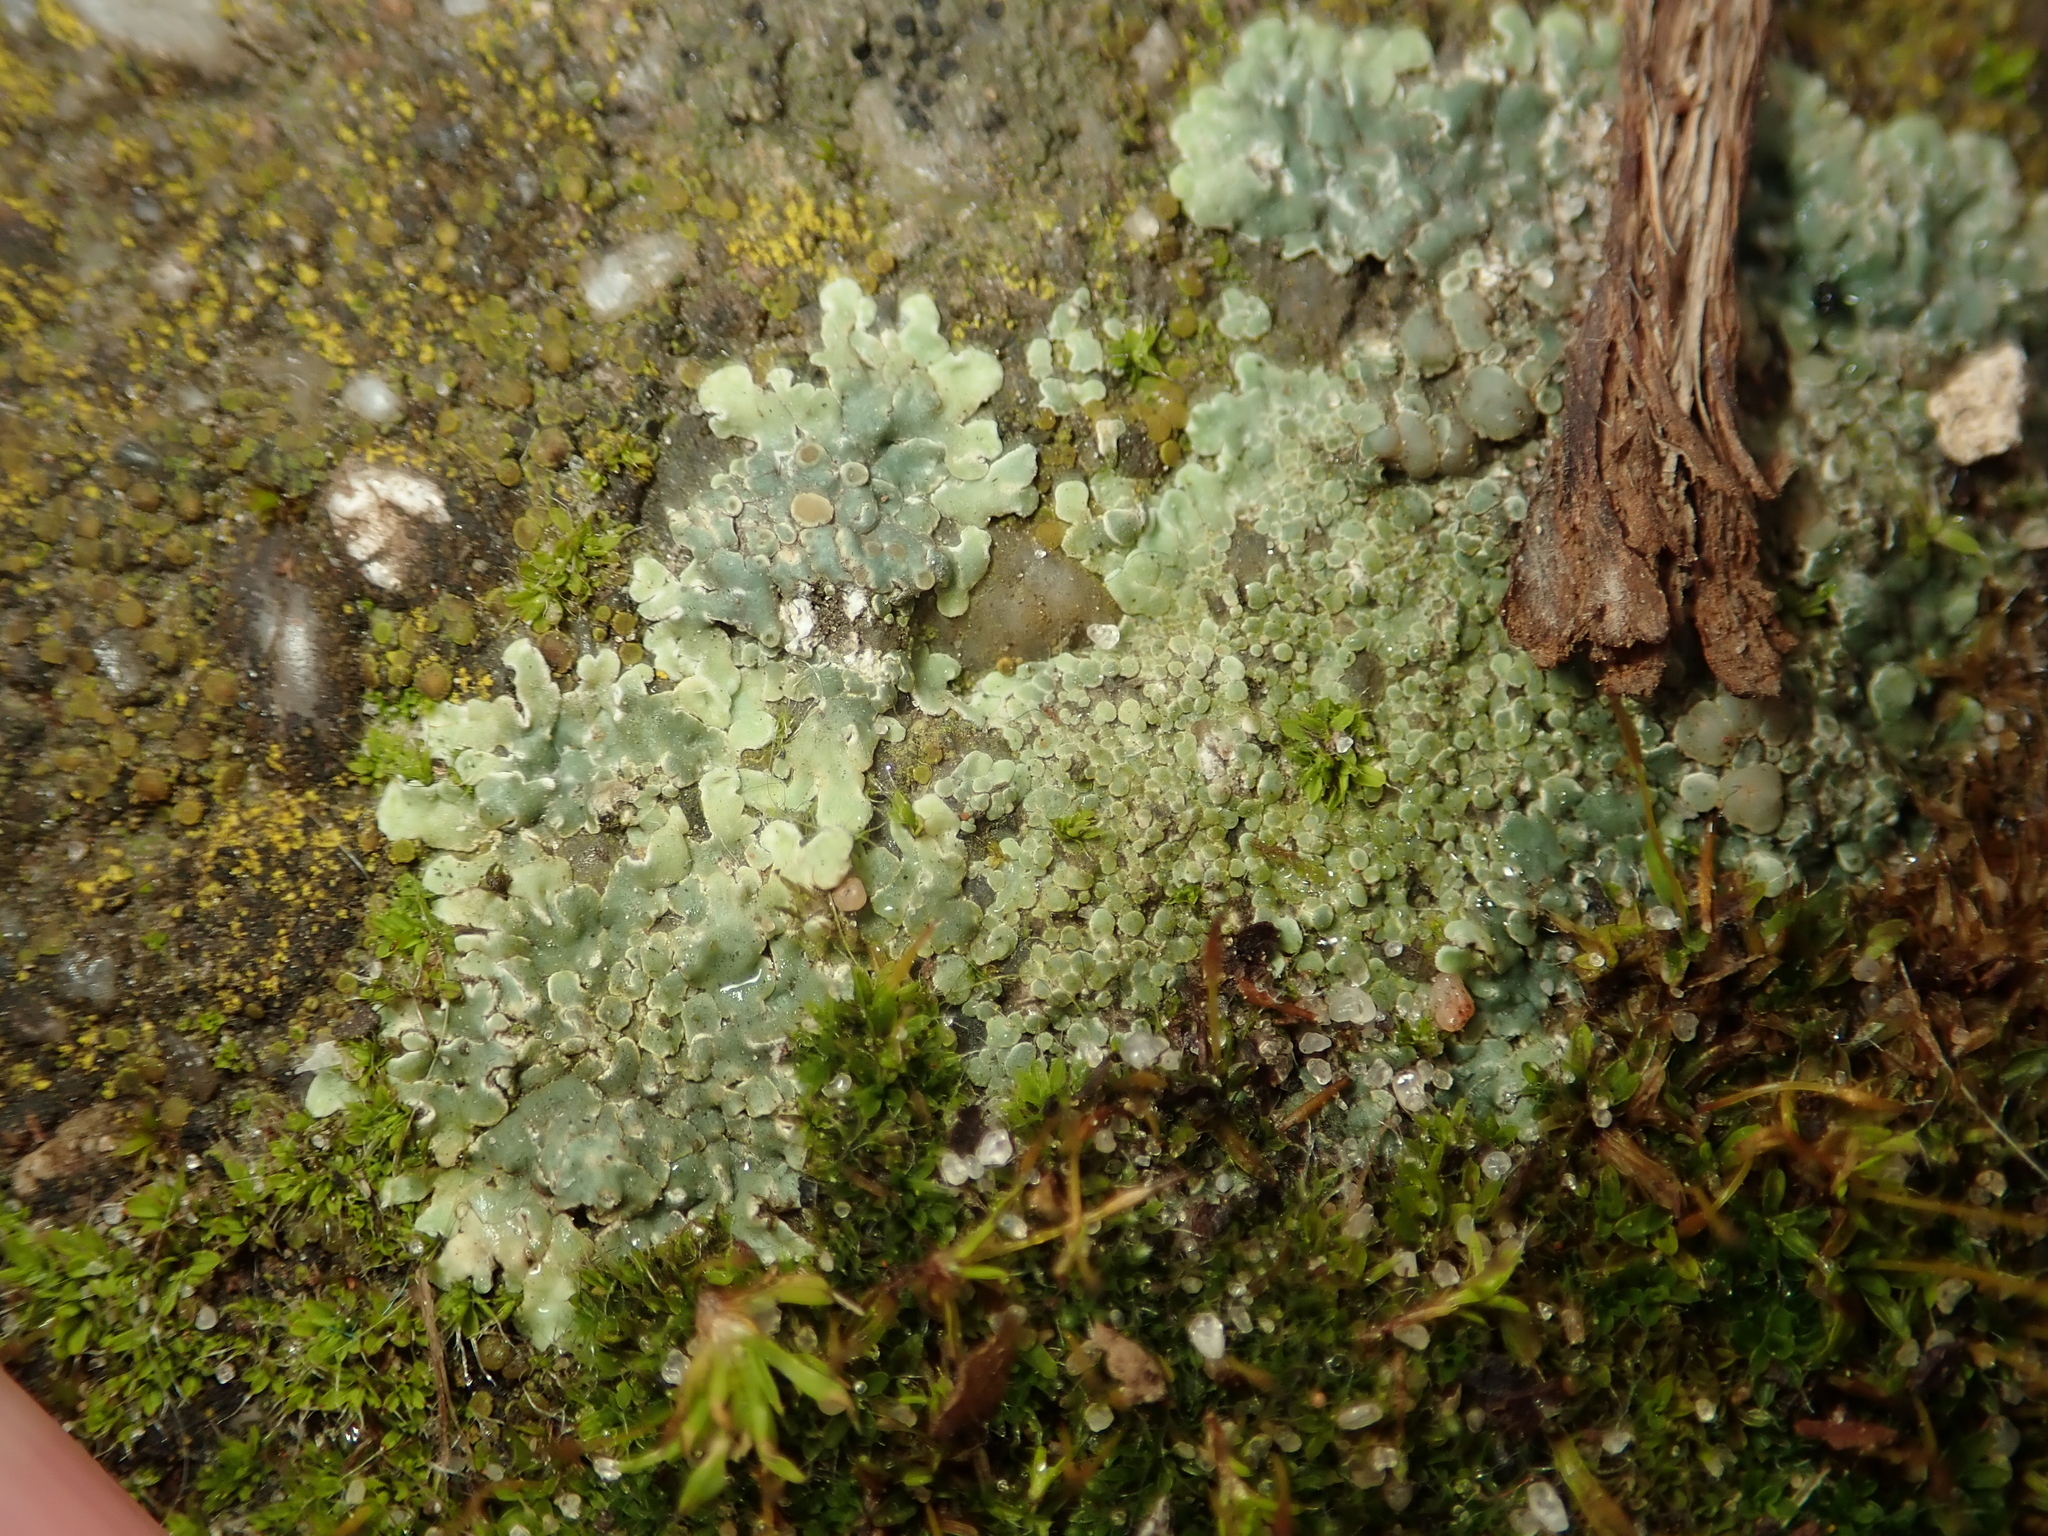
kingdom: Fungi
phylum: Ascomycota
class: Lecanoromycetes
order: Lecanorales
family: Lecanoraceae
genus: Protoparmeliopsis
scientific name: Protoparmeliopsis muralis
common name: Stonewall rim lichen
